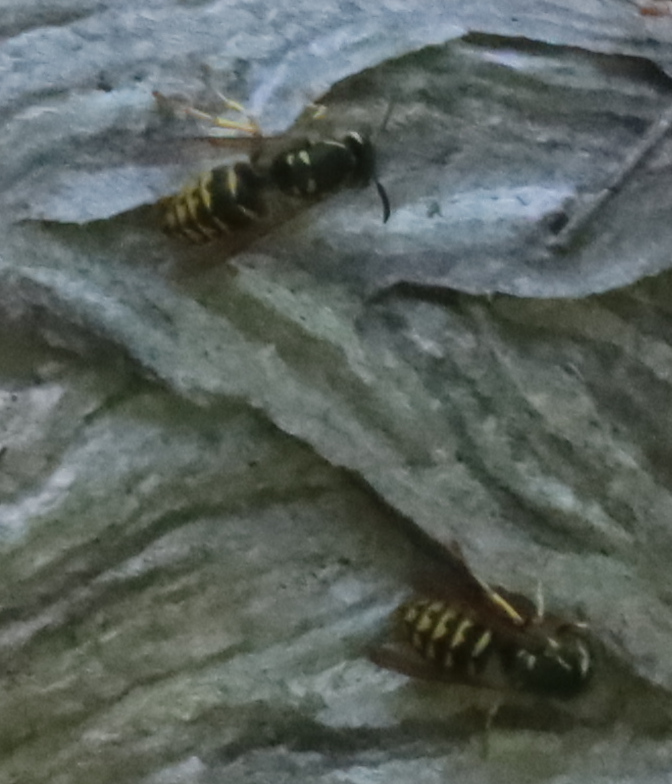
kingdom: Animalia
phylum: Arthropoda
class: Insecta
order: Hymenoptera
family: Vespidae
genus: Dolichovespula
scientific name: Dolichovespula arenaria
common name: Aerial yellowjacket
